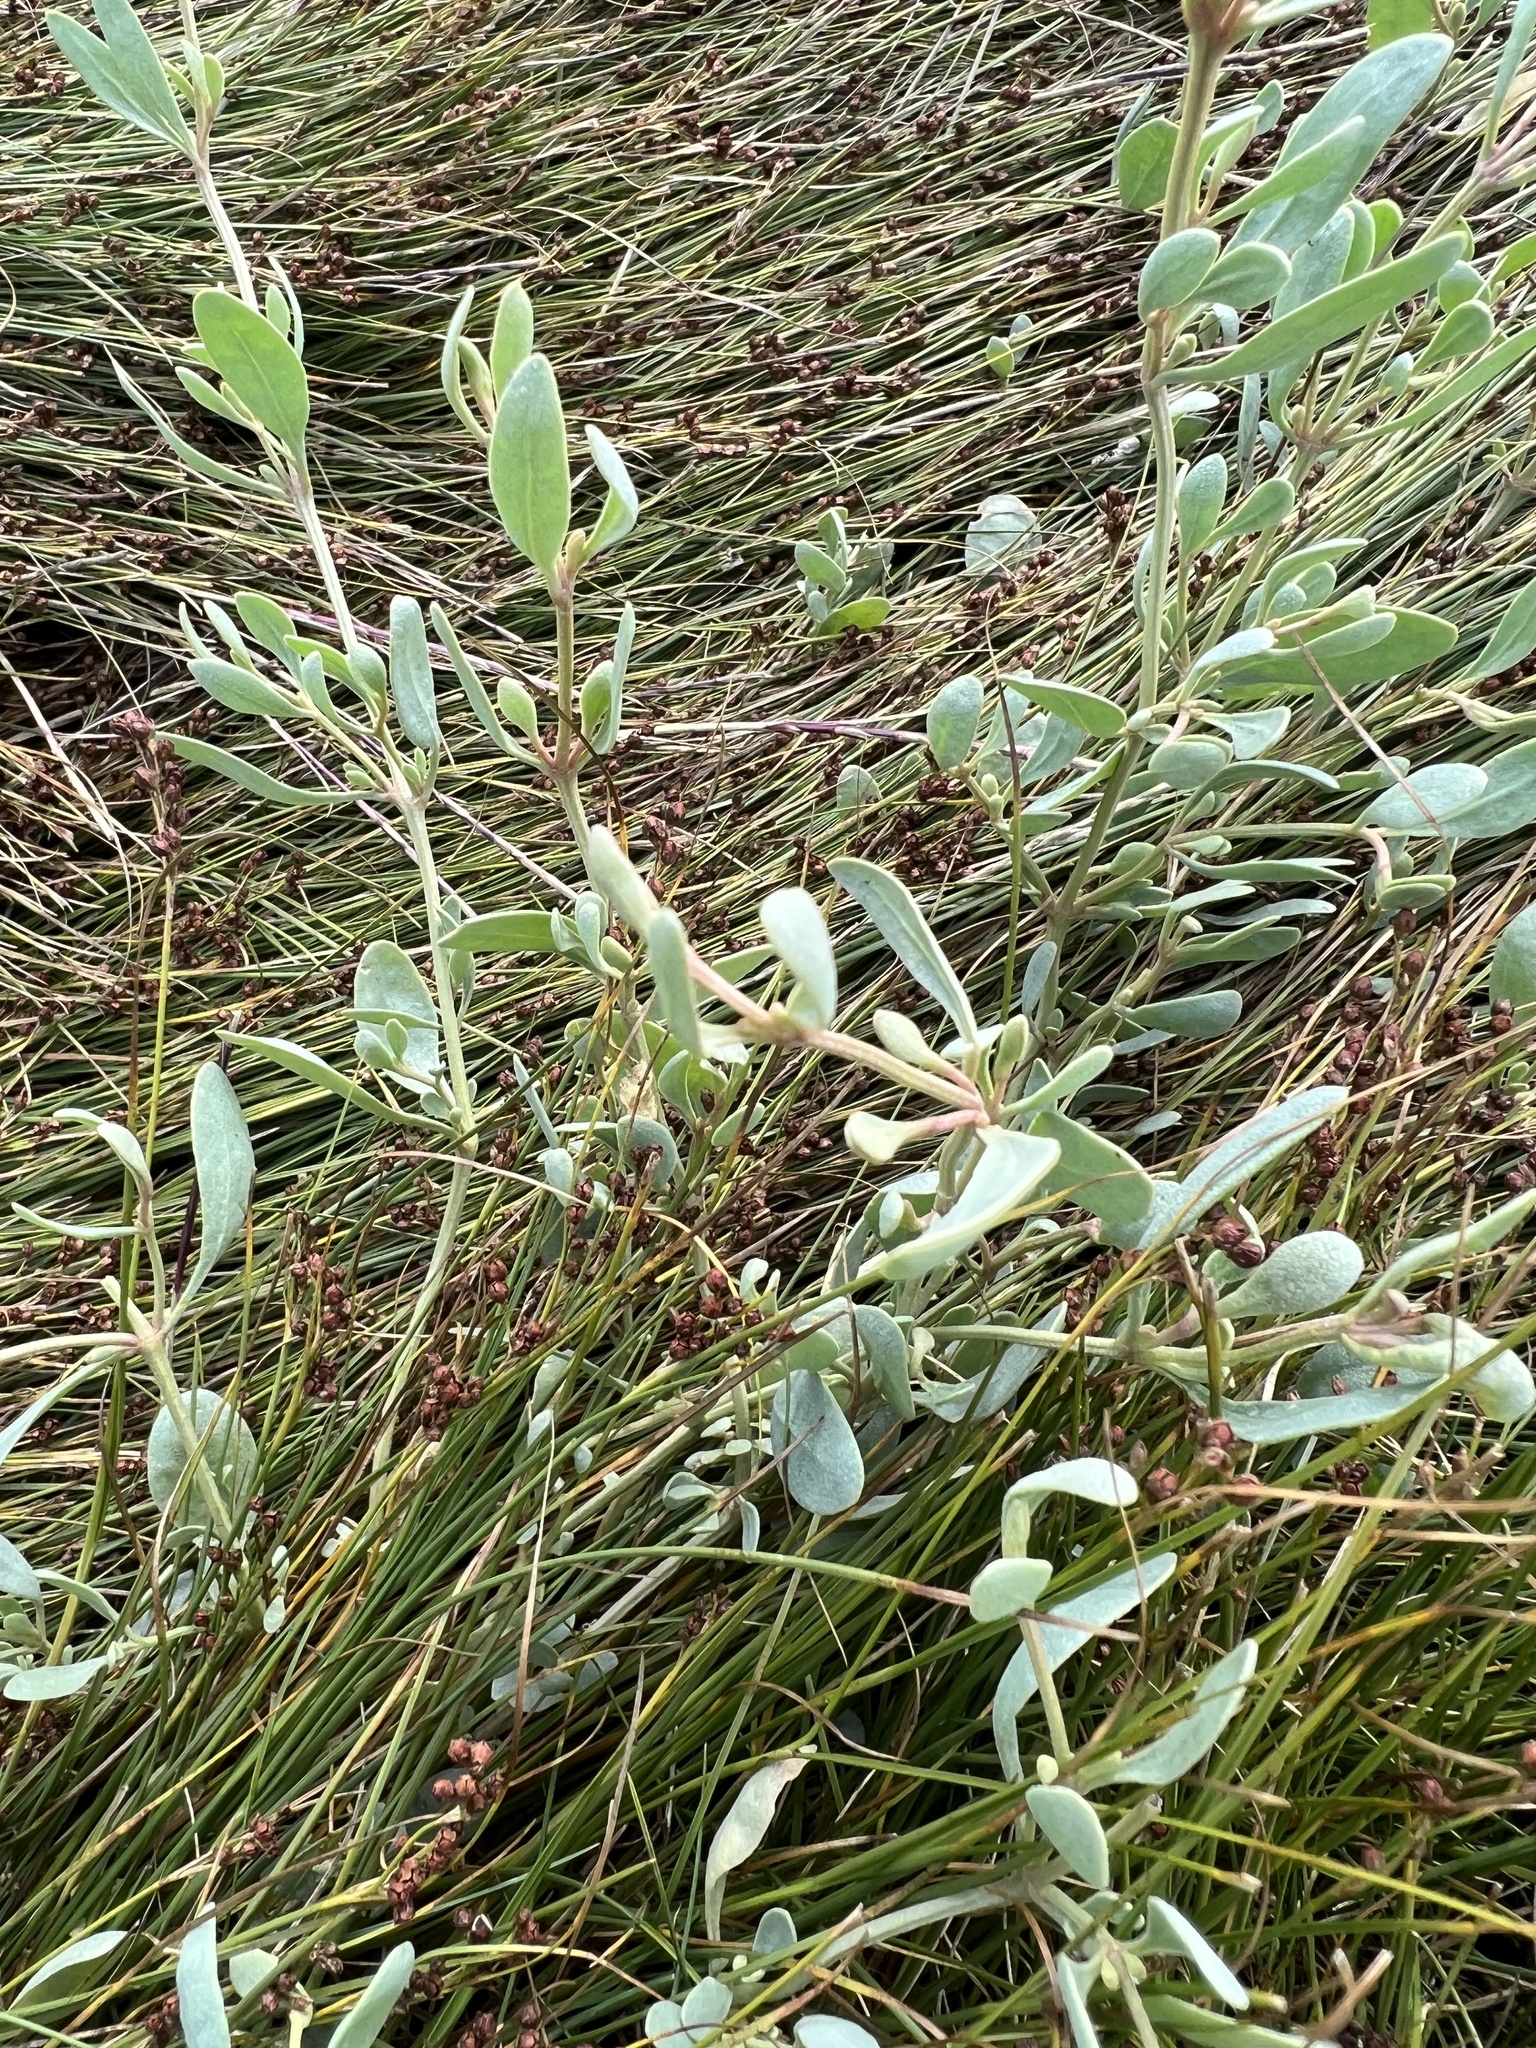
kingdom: Plantae
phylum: Tracheophyta
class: Magnoliopsida
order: Caryophyllales
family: Amaranthaceae
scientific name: Amaranthaceae
